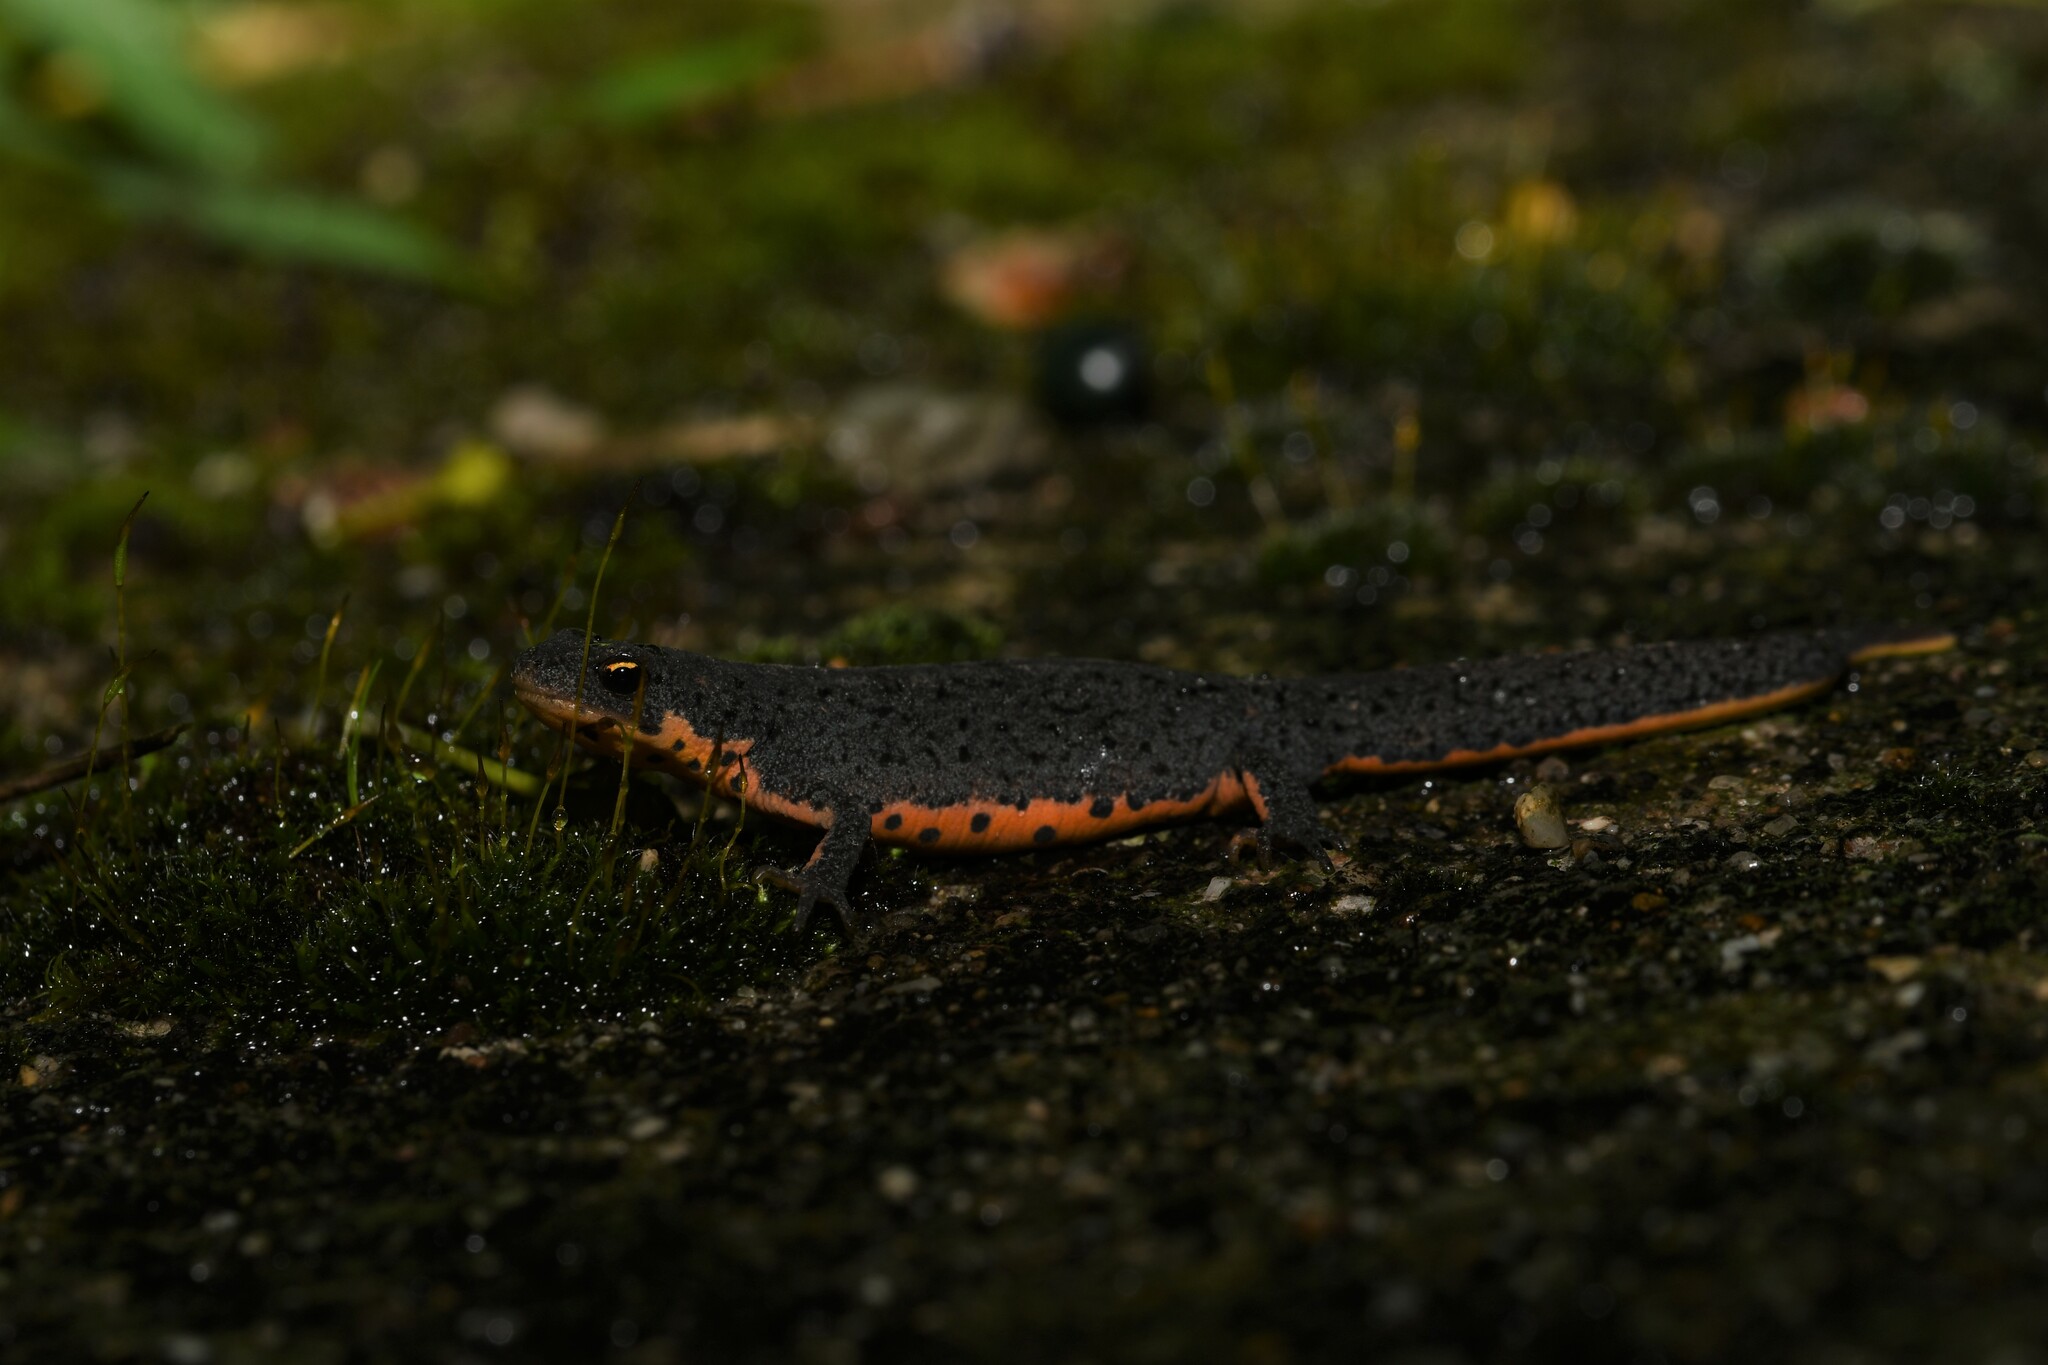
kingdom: Animalia
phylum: Chordata
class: Amphibia
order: Caudata
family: Salamandridae
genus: Lissotriton
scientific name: Lissotriton boscai
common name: Bosca's newt
